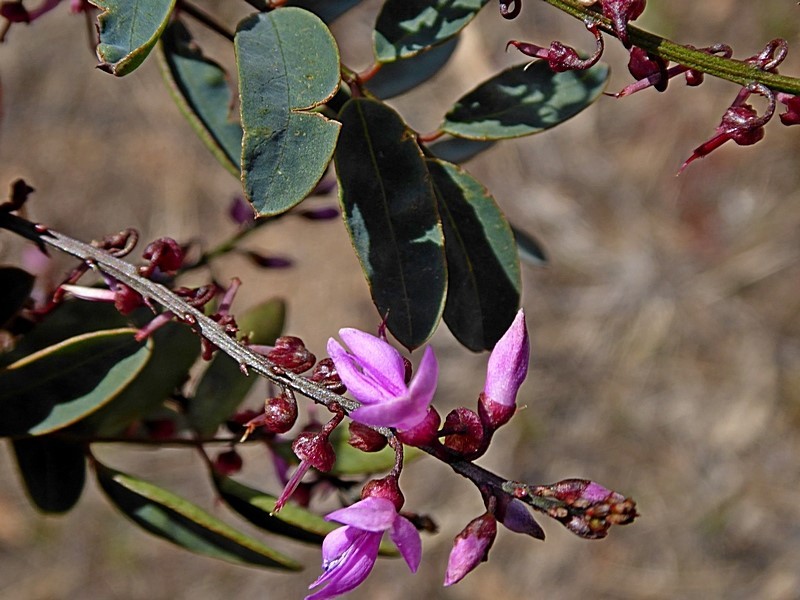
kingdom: Plantae
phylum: Tracheophyta
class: Magnoliopsida
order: Fabales
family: Fabaceae
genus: Indigofera
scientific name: Indigofera australis
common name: Australian indigo
